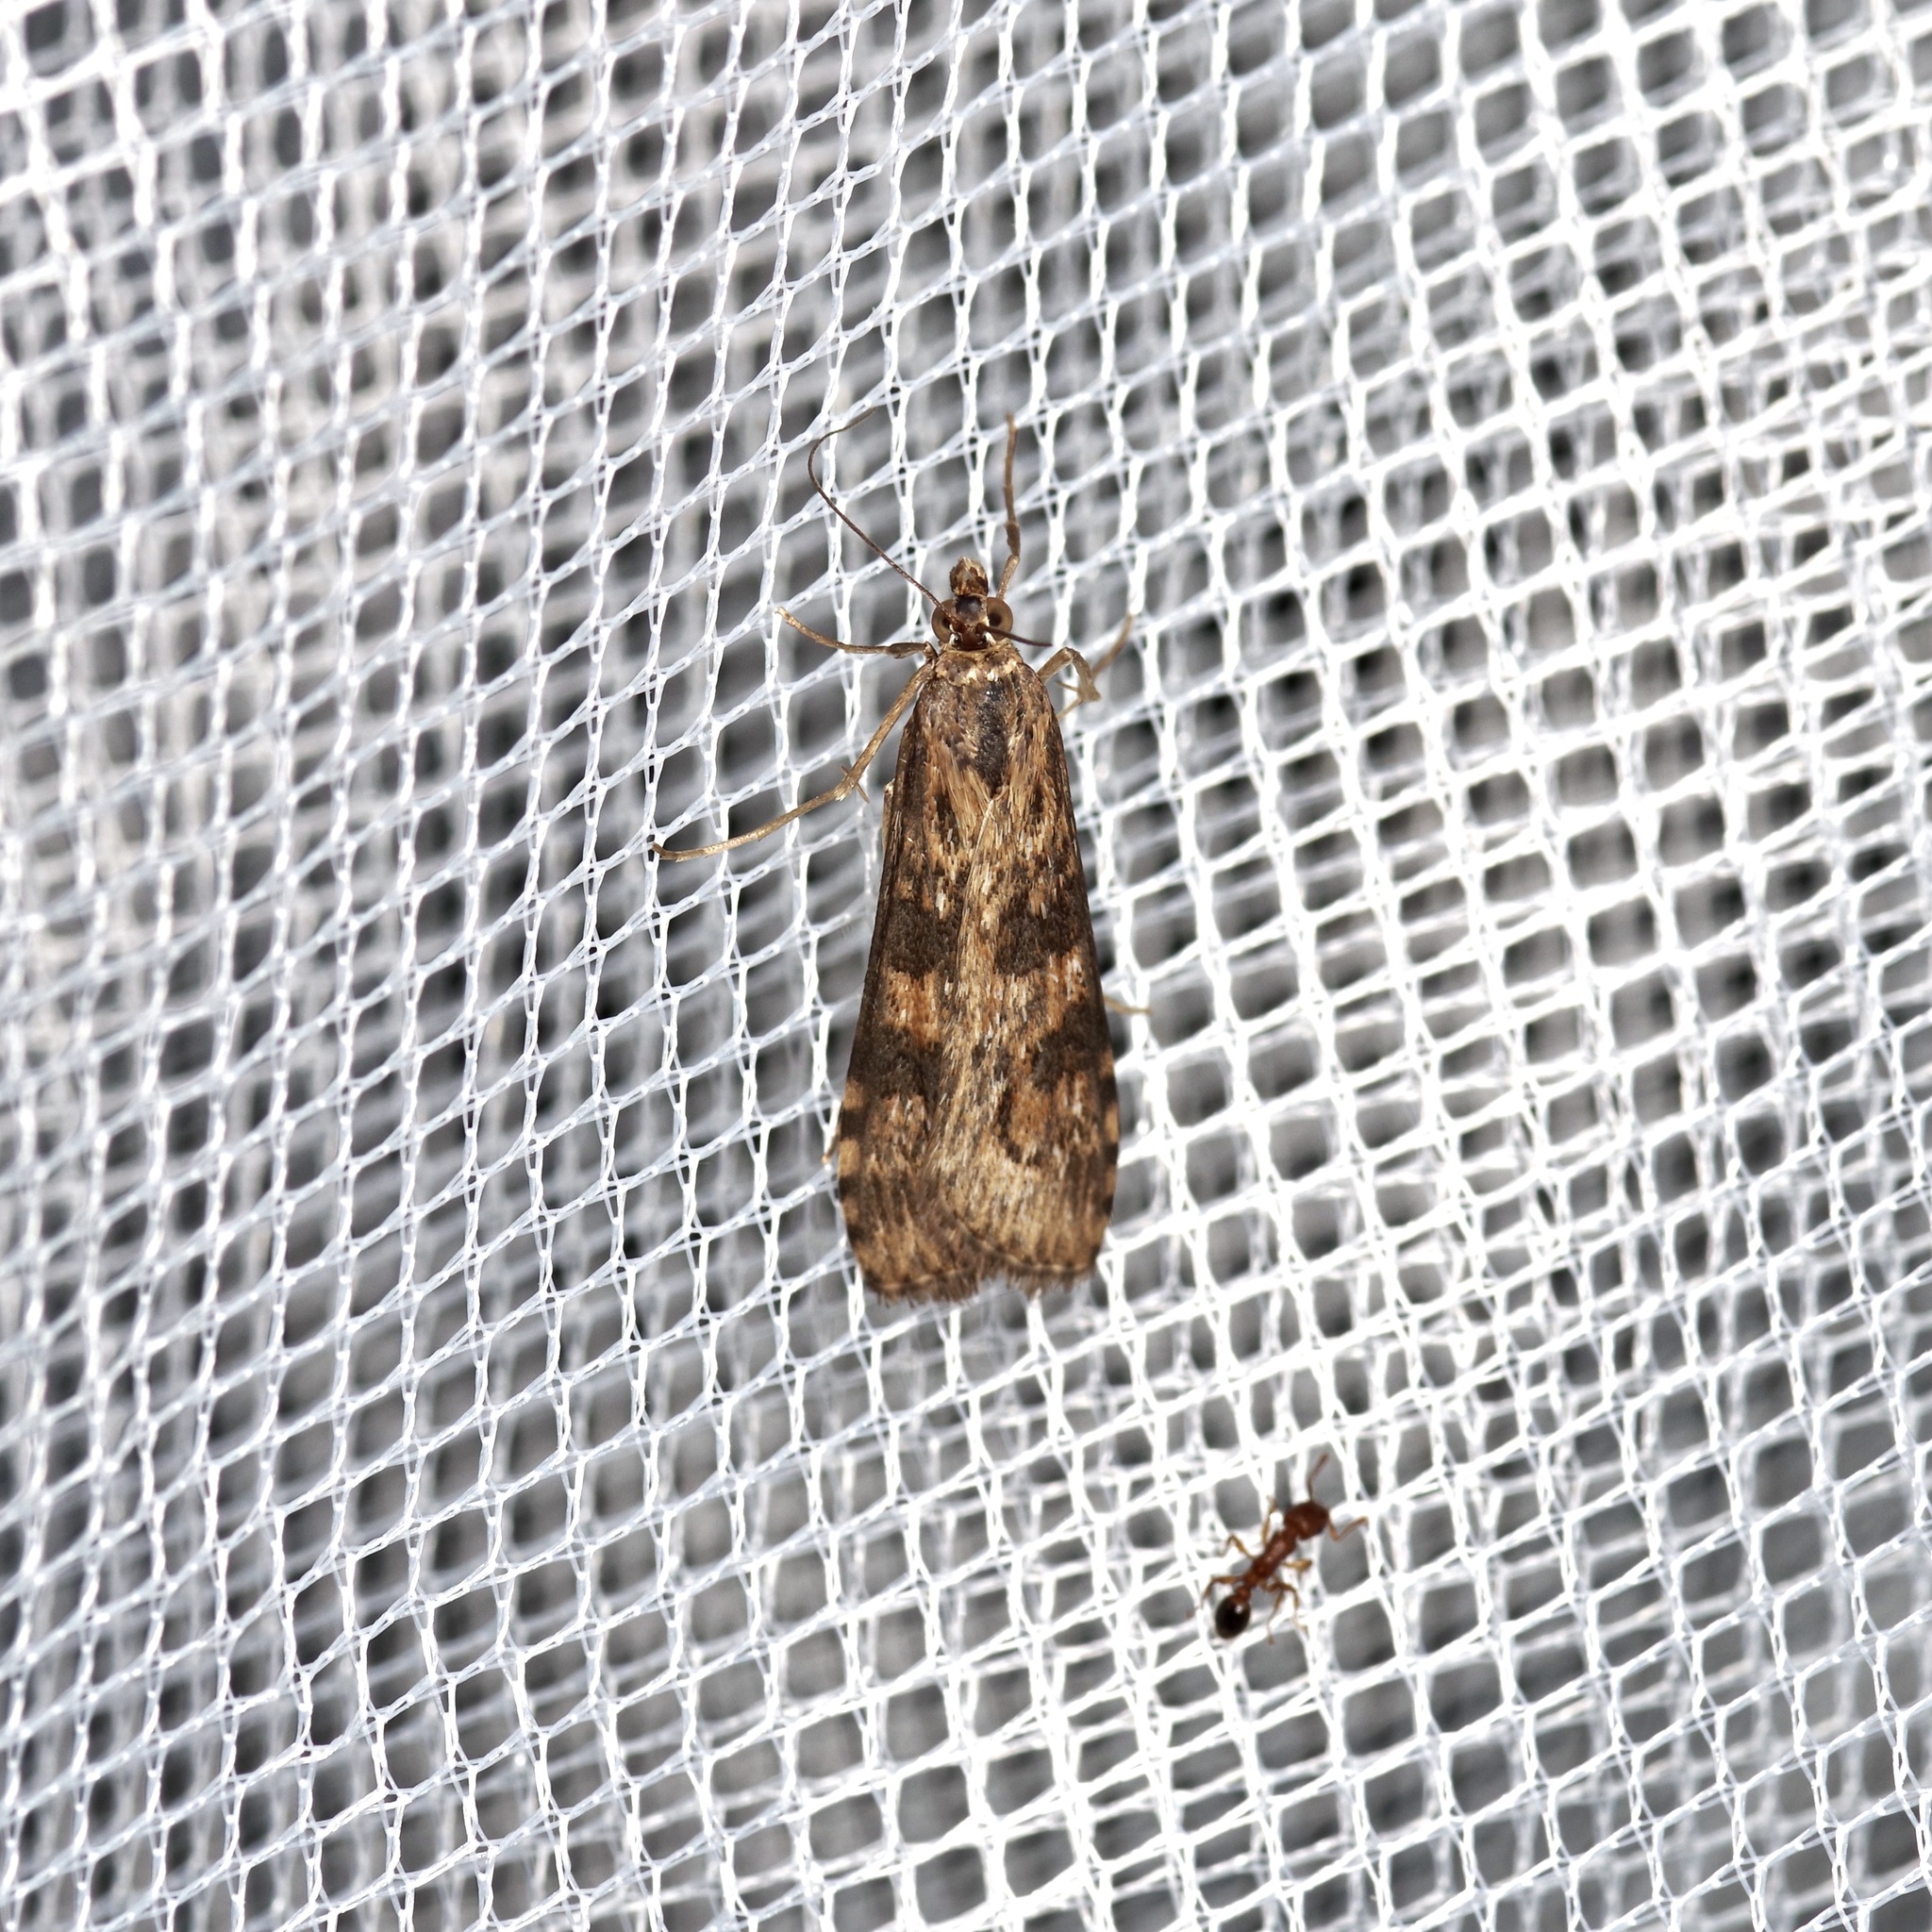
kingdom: Animalia
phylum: Arthropoda
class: Insecta
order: Lepidoptera
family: Crambidae
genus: Nomophila
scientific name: Nomophila nearctica
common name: American rush veneer
